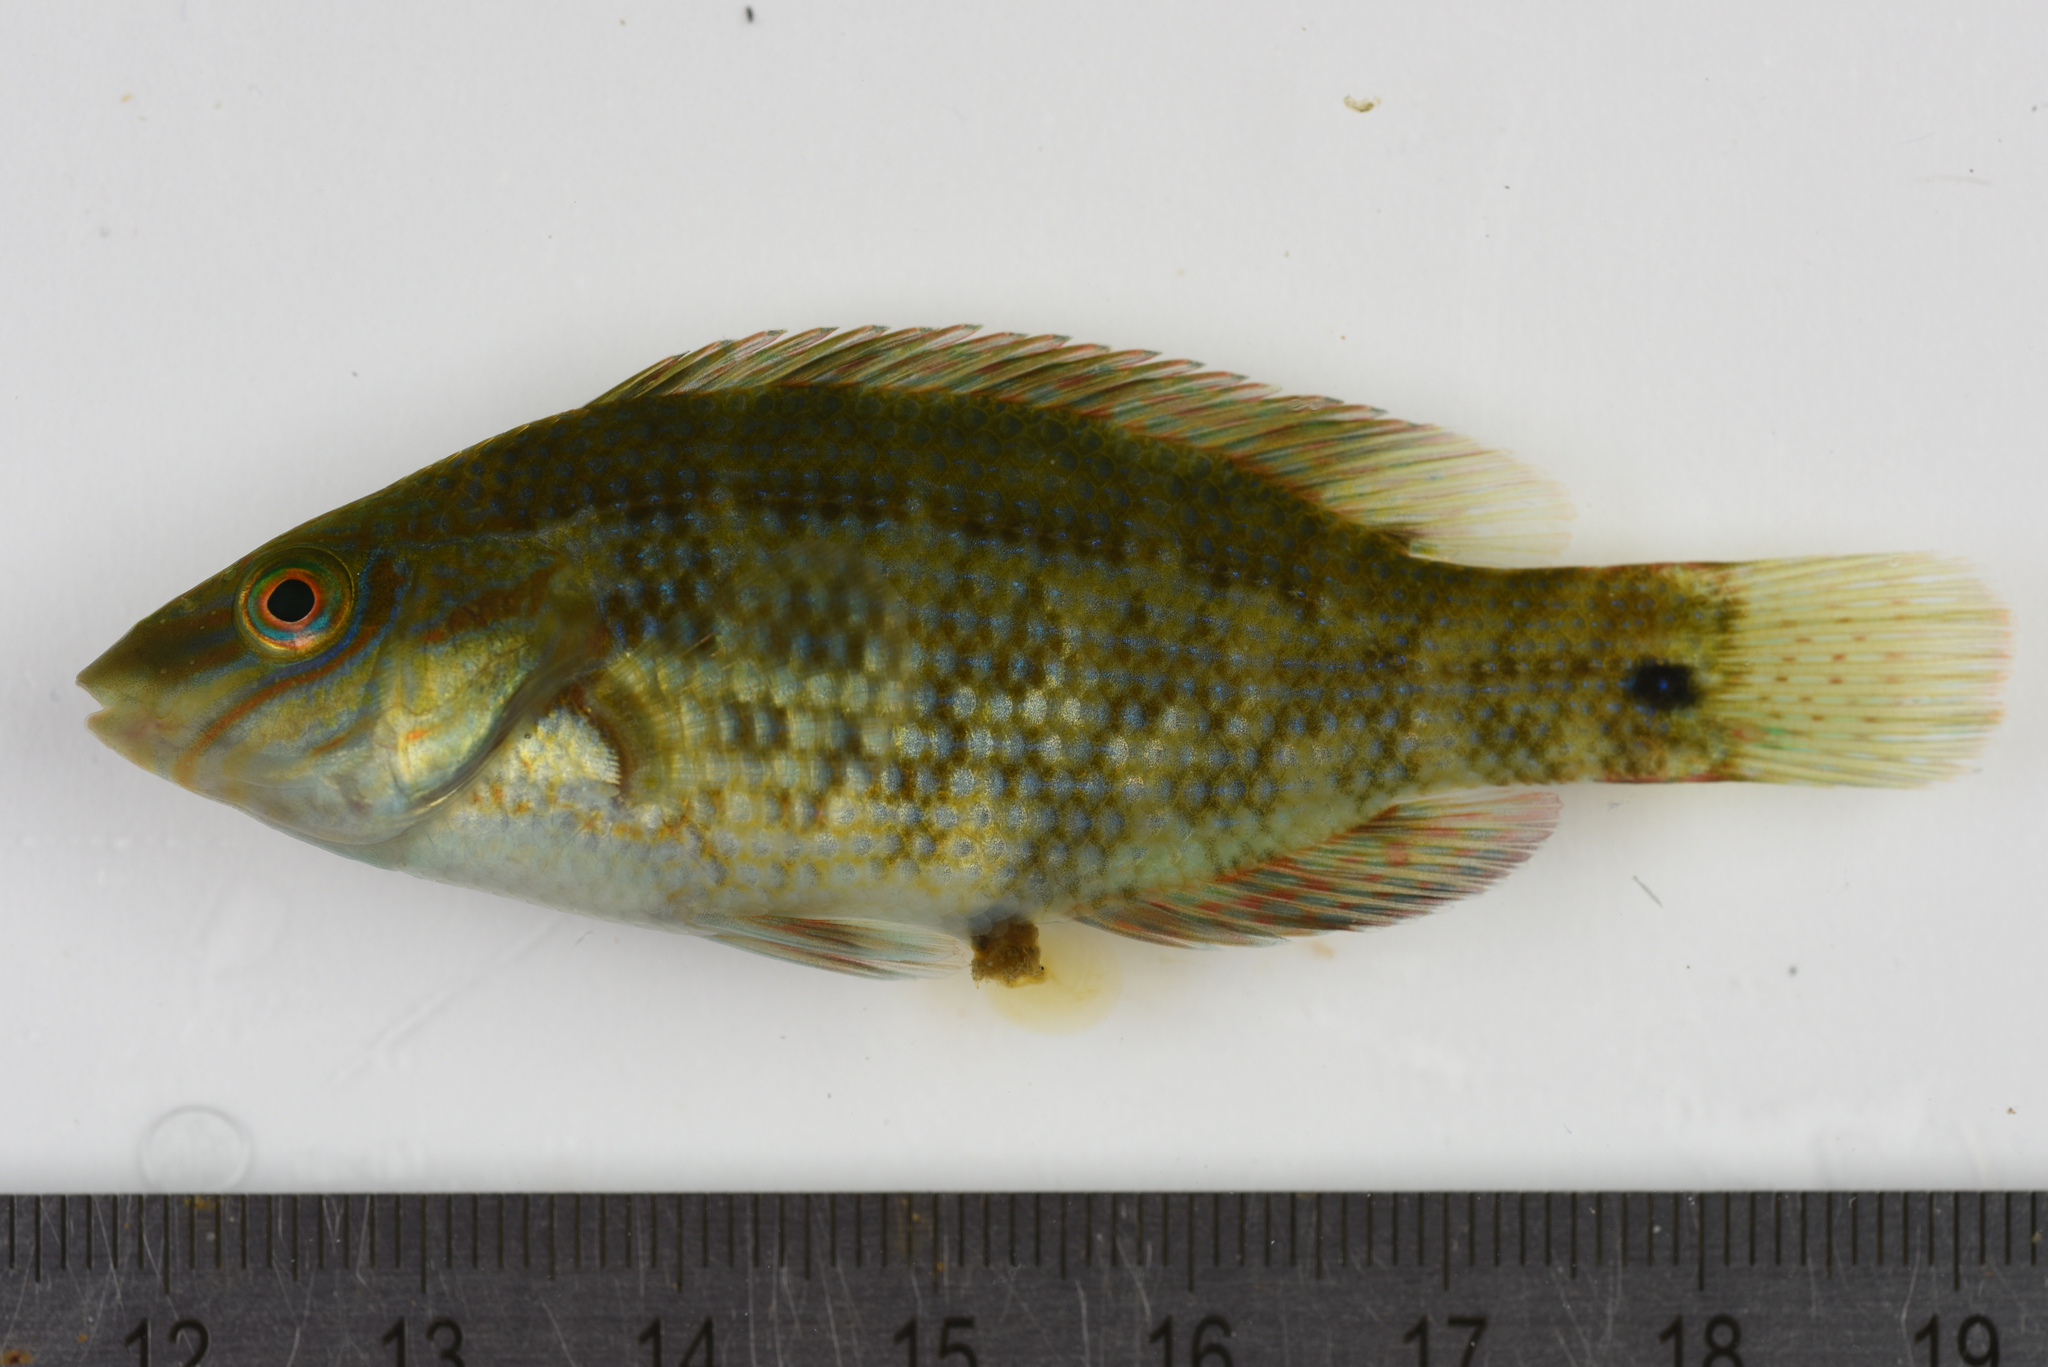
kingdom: Animalia
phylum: Chordata
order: Perciformes
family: Labridae
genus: Symphodus
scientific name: Symphodus melops
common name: Corkwing
